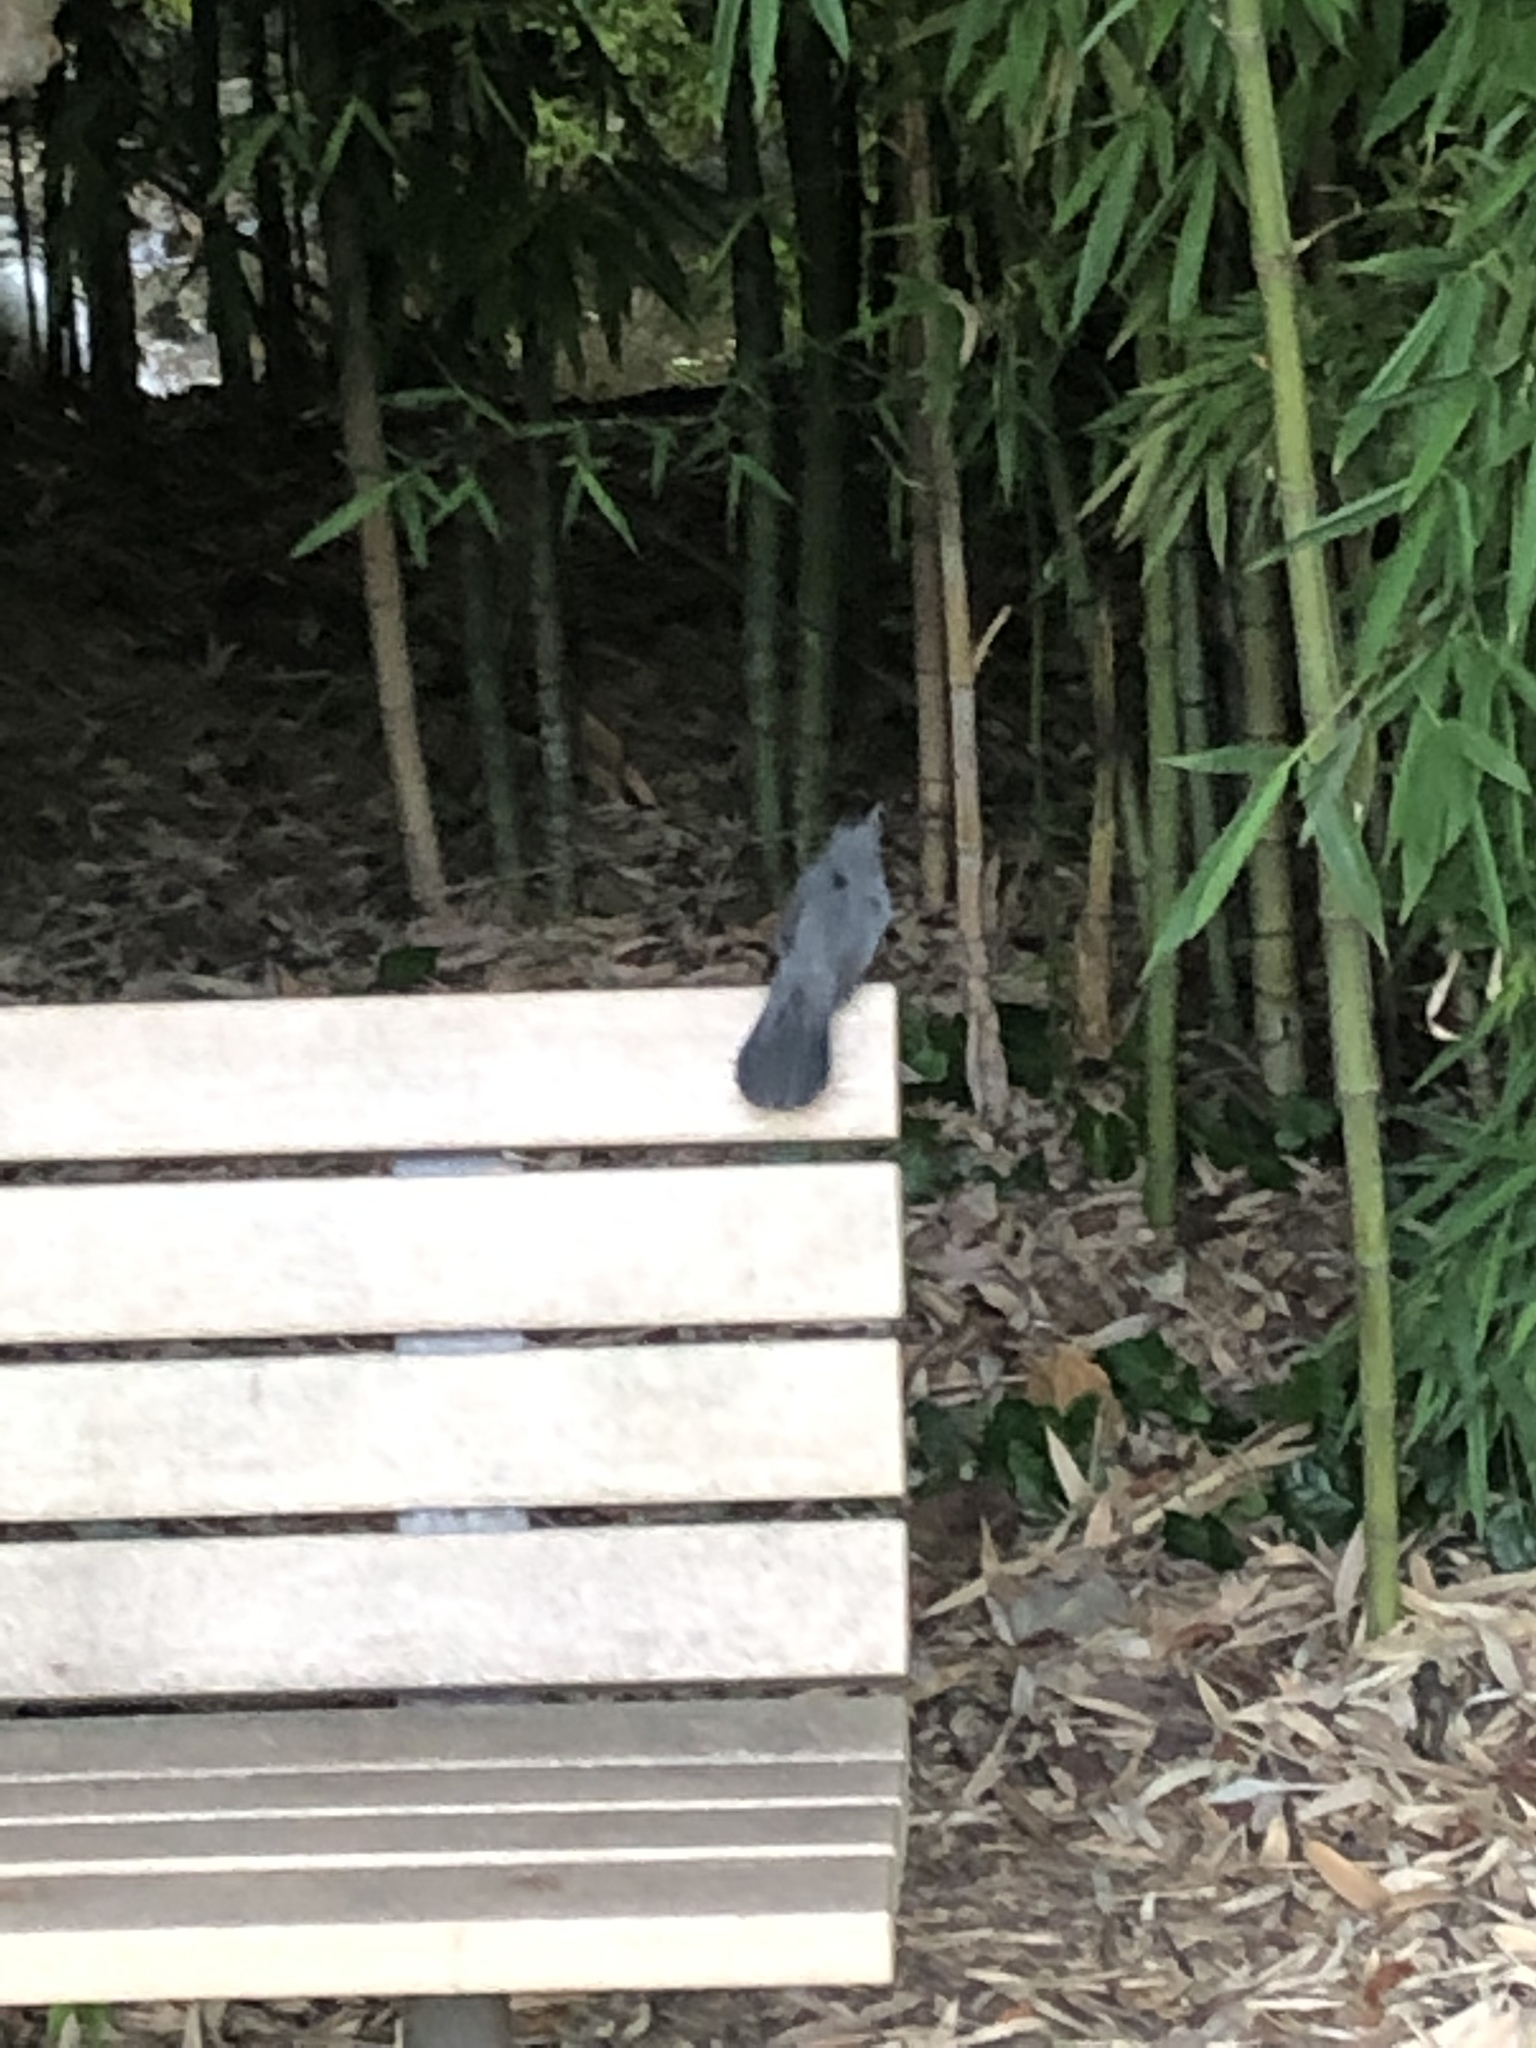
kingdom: Animalia
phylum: Chordata
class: Aves
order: Passeriformes
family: Mimidae
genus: Dumetella
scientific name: Dumetella carolinensis
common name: Gray catbird
